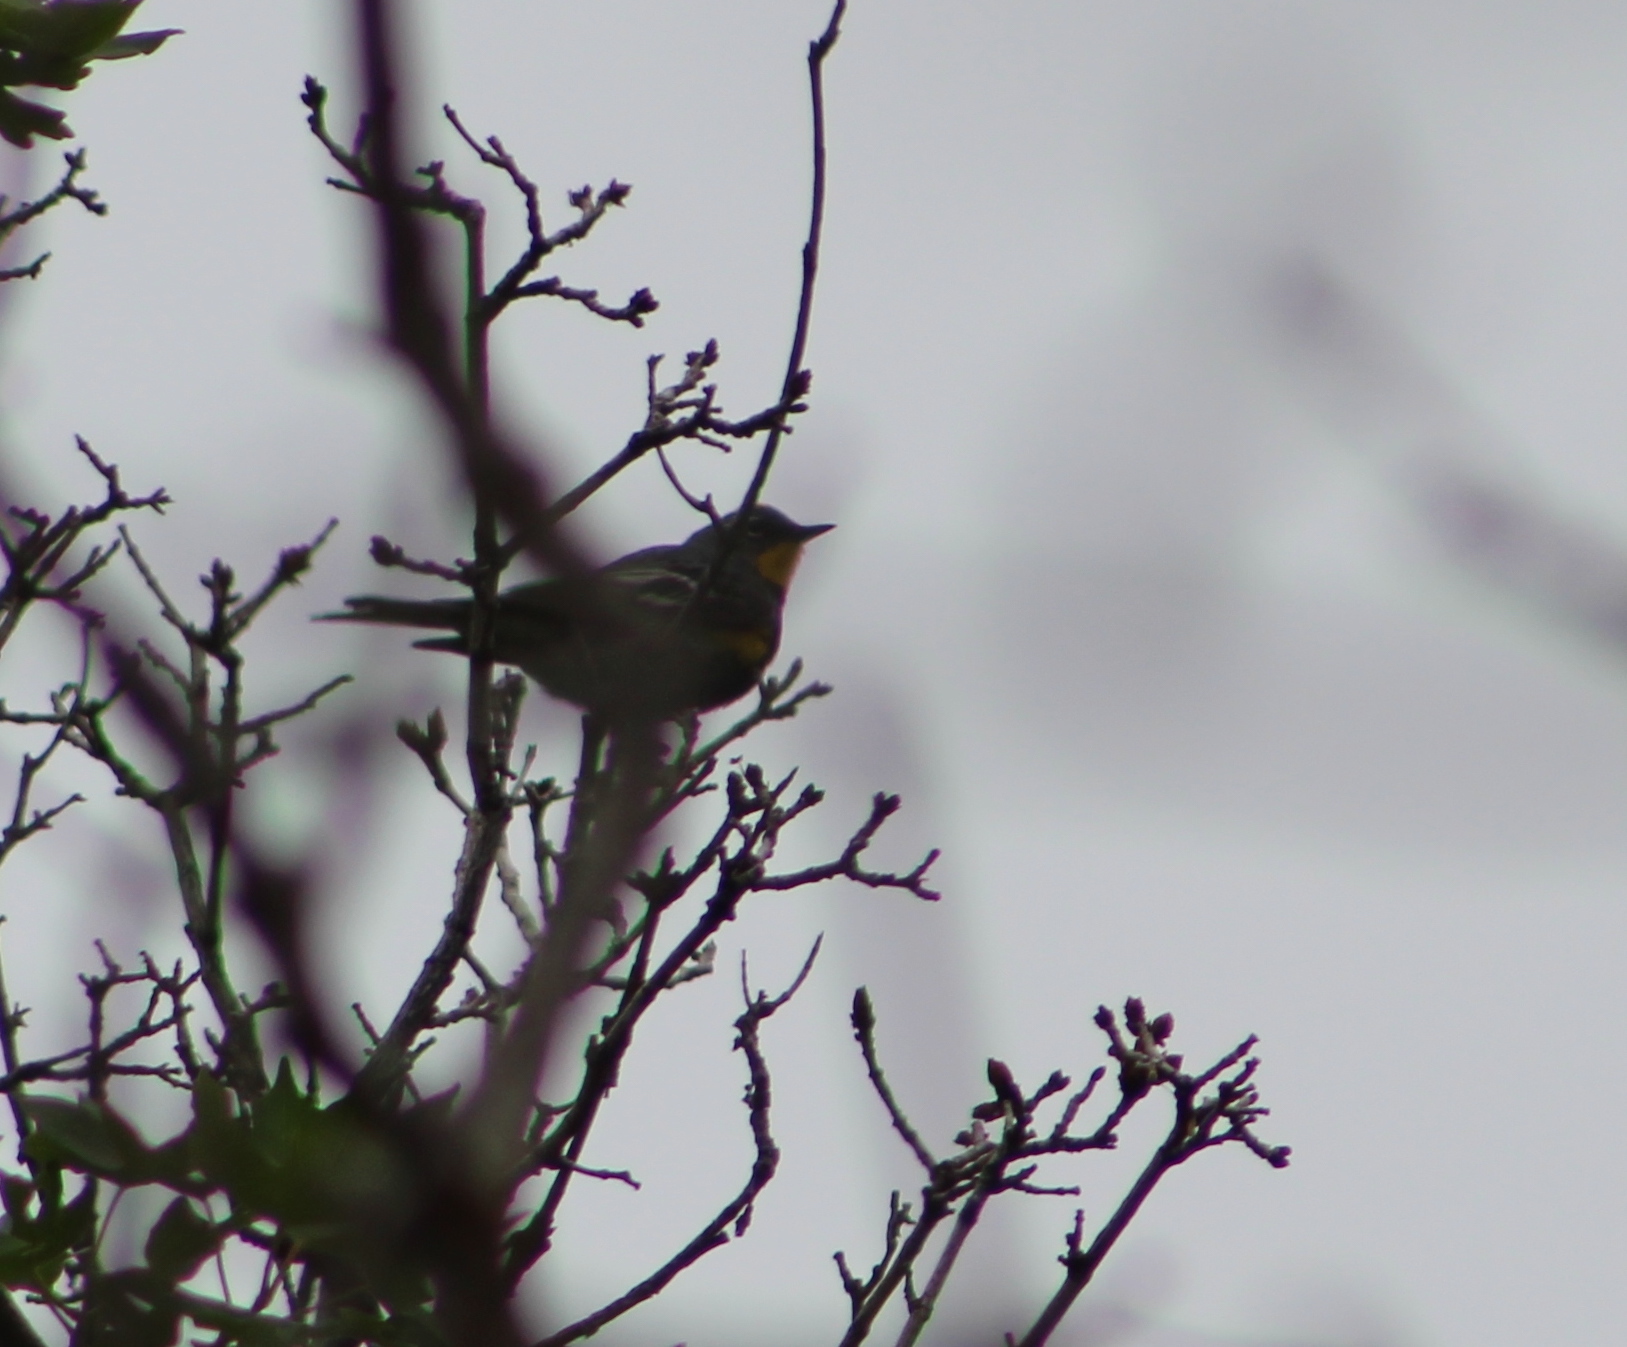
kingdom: Animalia
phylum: Chordata
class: Aves
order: Passeriformes
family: Parulidae
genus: Setophaga
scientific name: Setophaga coronata
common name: Myrtle warbler
